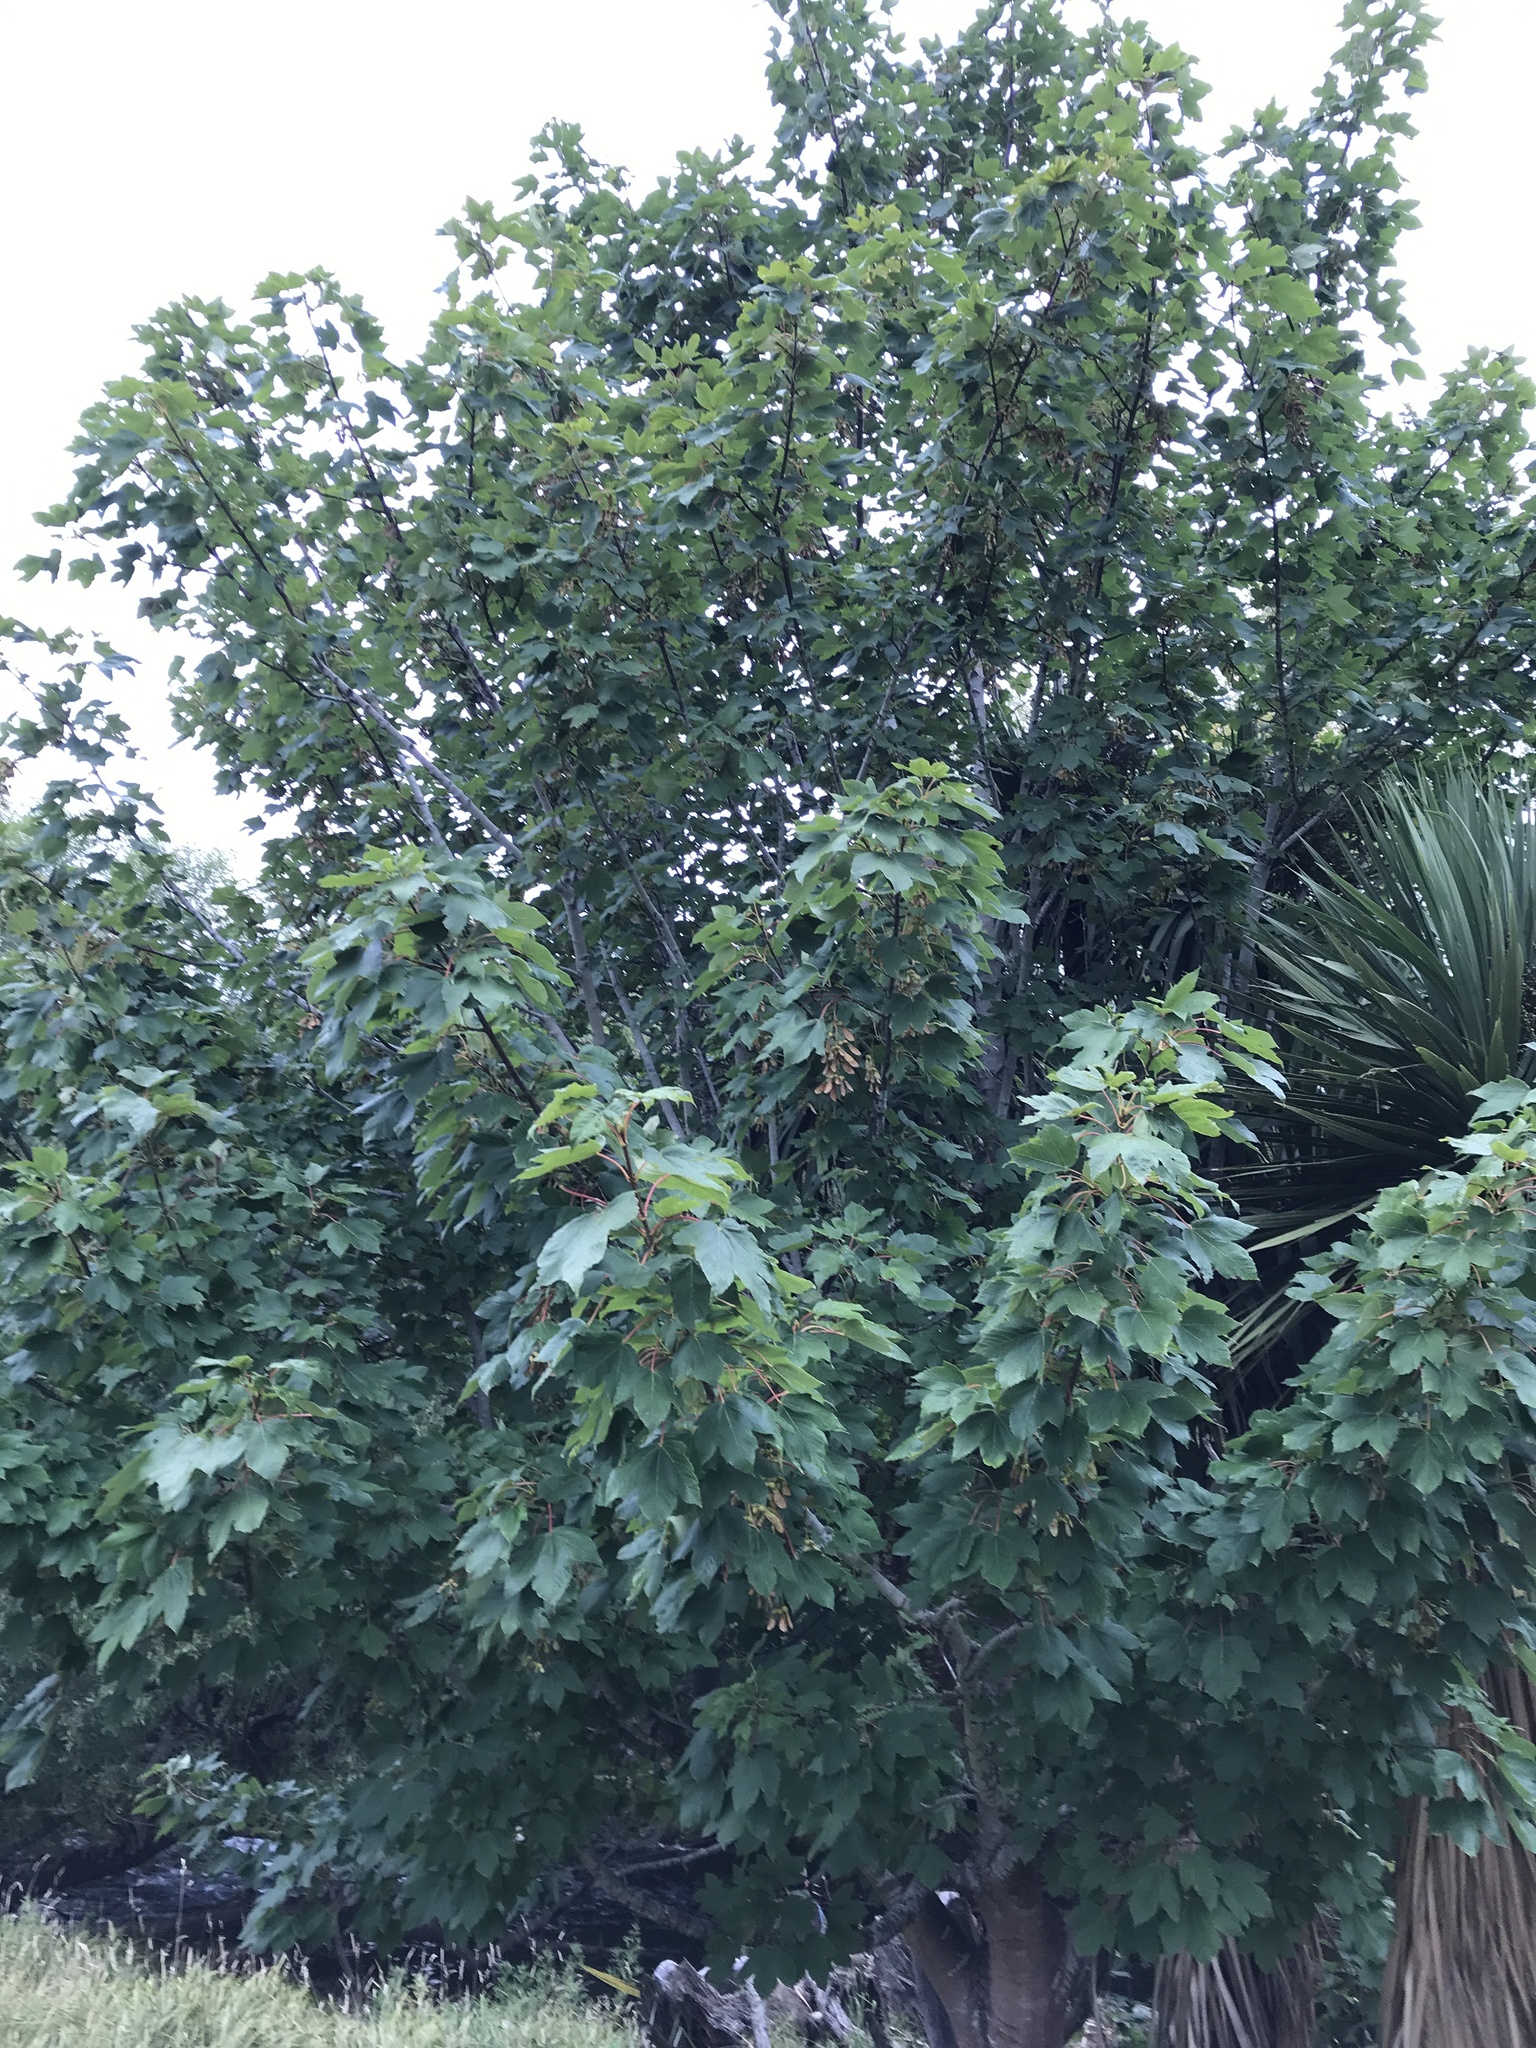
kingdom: Plantae
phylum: Tracheophyta
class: Magnoliopsida
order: Sapindales
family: Sapindaceae
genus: Acer
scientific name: Acer pseudoplatanus
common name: Sycamore
